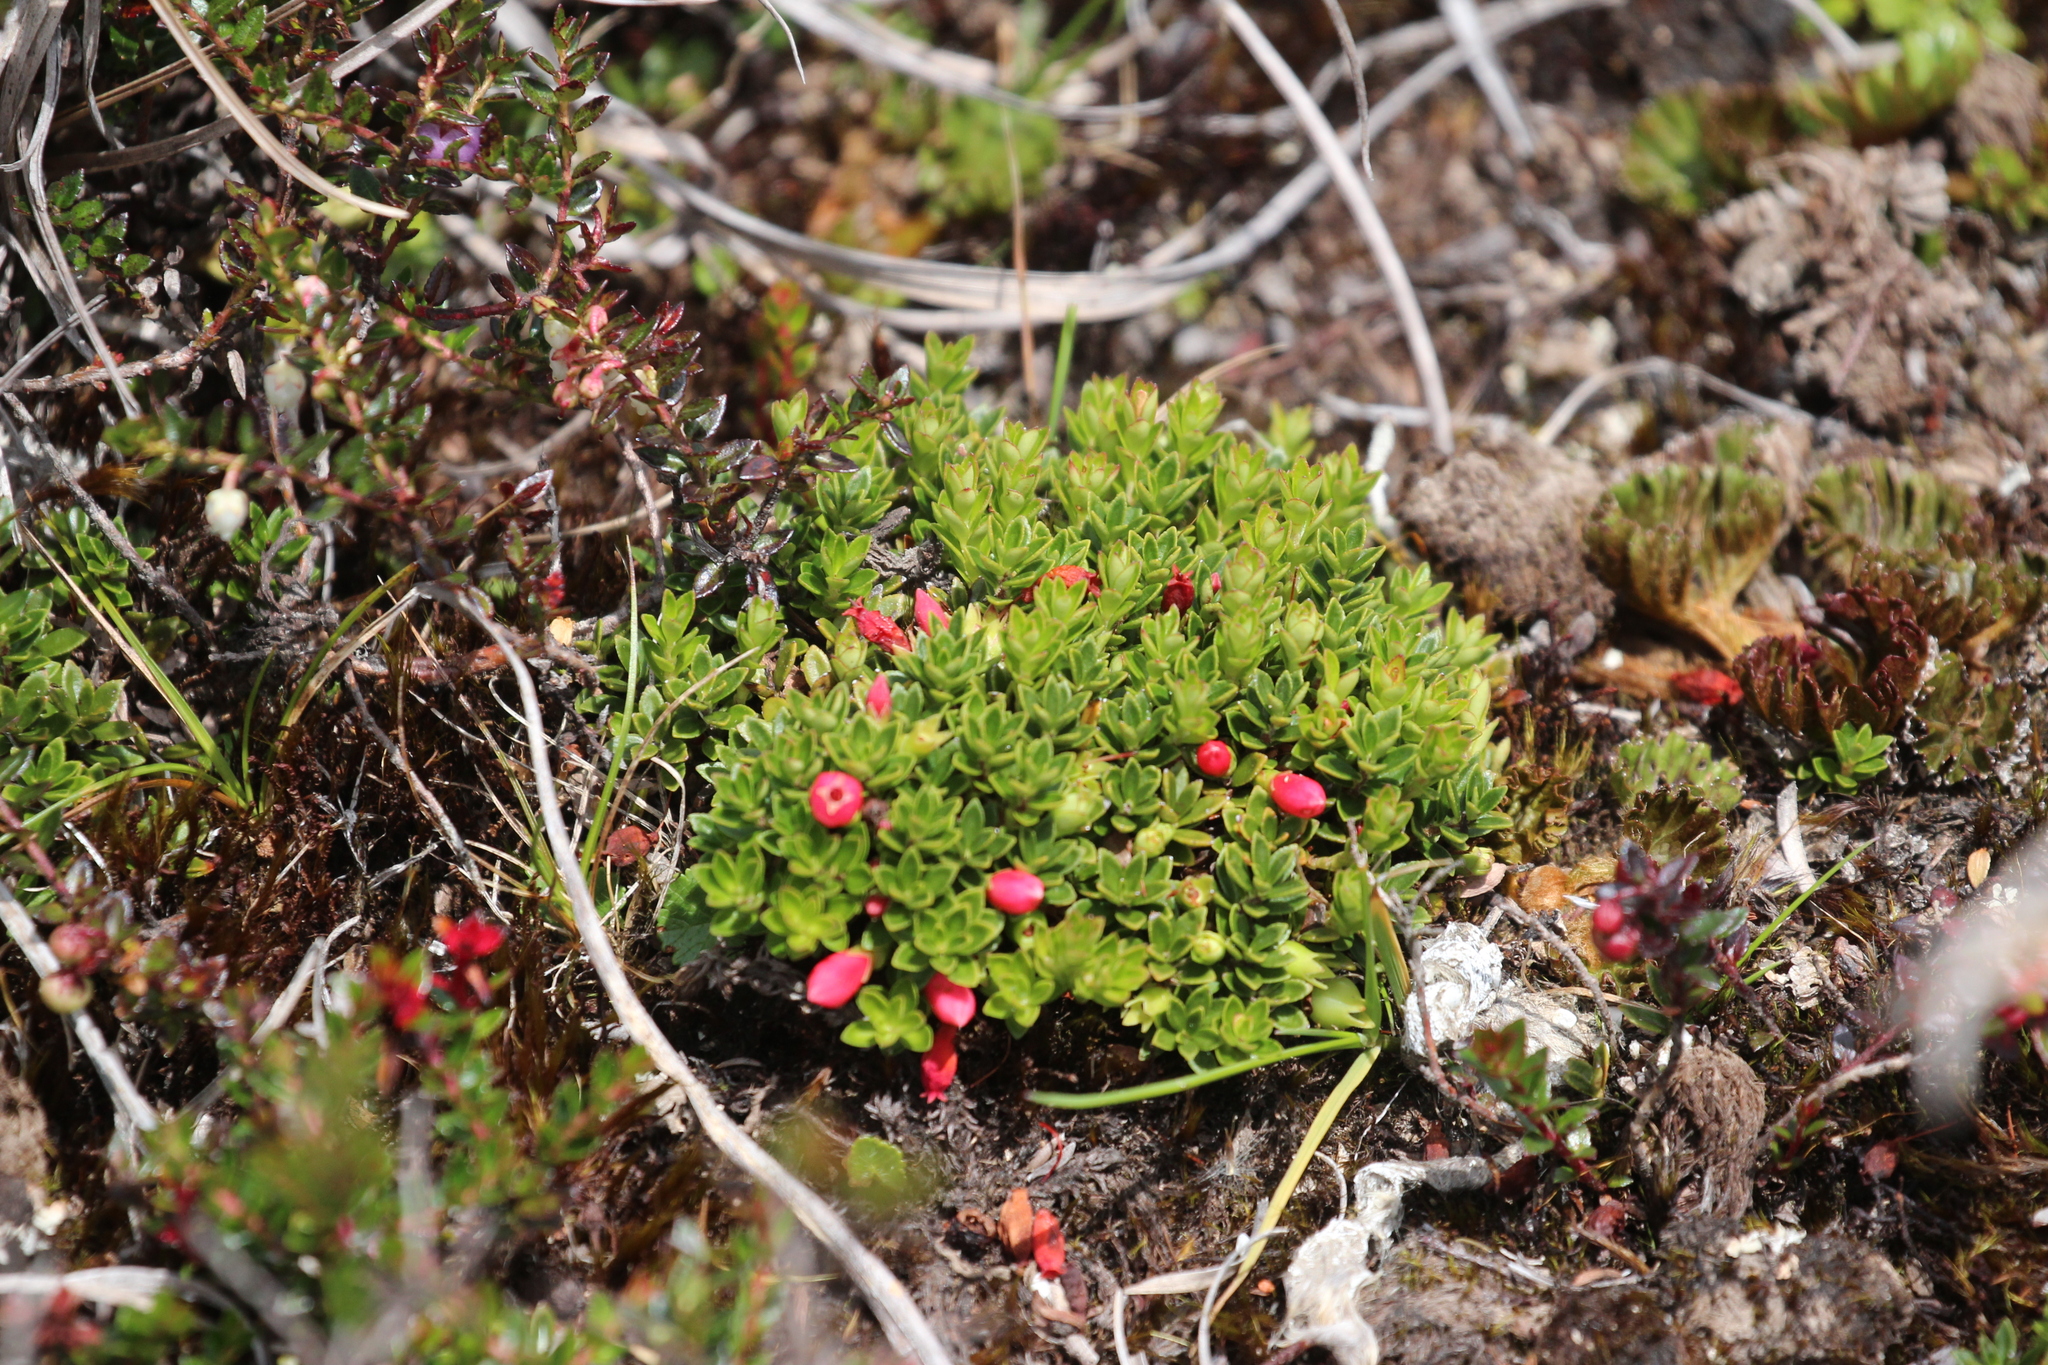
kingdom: Plantae
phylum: Tracheophyta
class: Magnoliopsida
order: Ericales
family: Ericaceae
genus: Disterigma
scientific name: Disterigma empetrifolium
